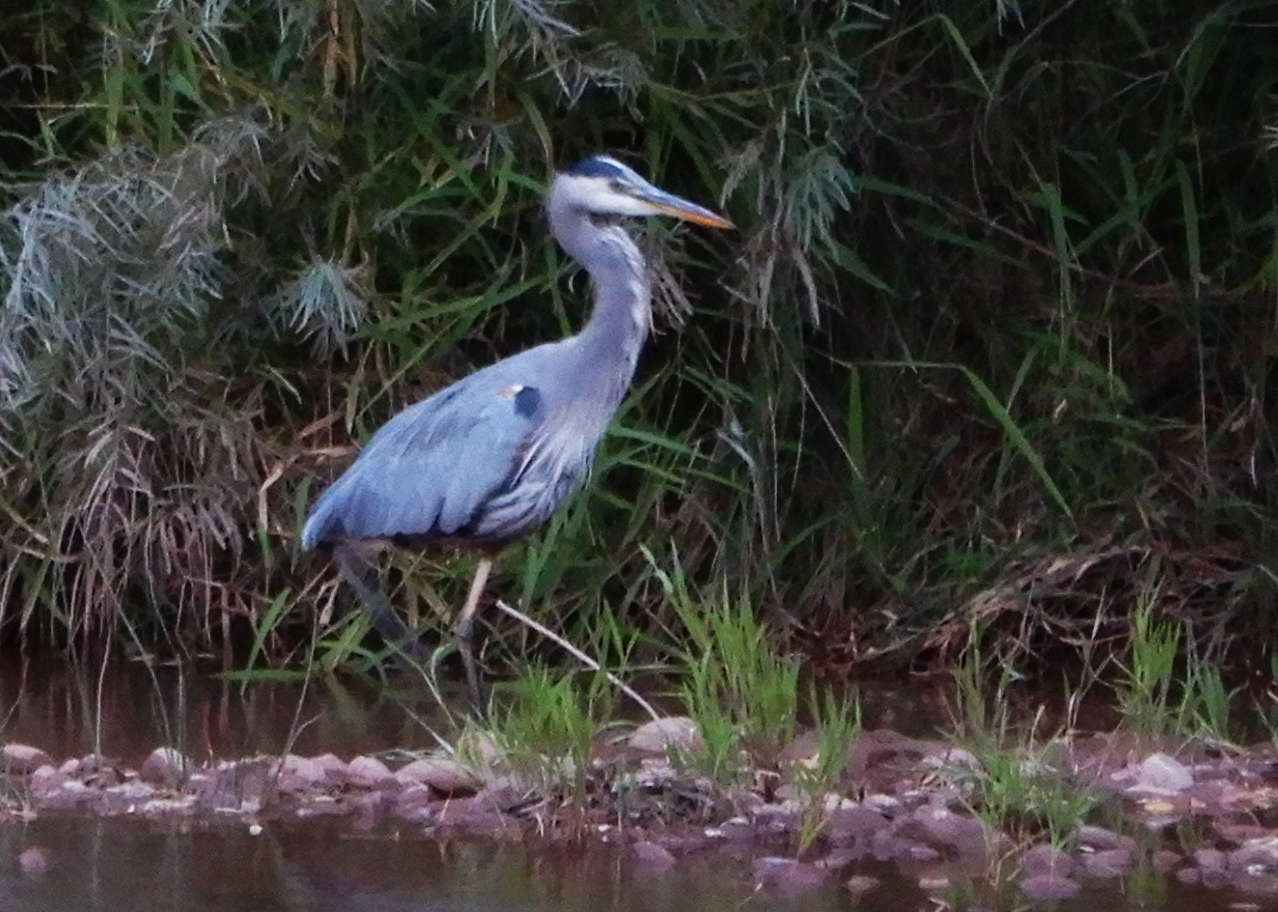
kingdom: Animalia
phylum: Chordata
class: Aves
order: Pelecaniformes
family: Ardeidae
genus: Ardea
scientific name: Ardea herodias
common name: Great blue heron
